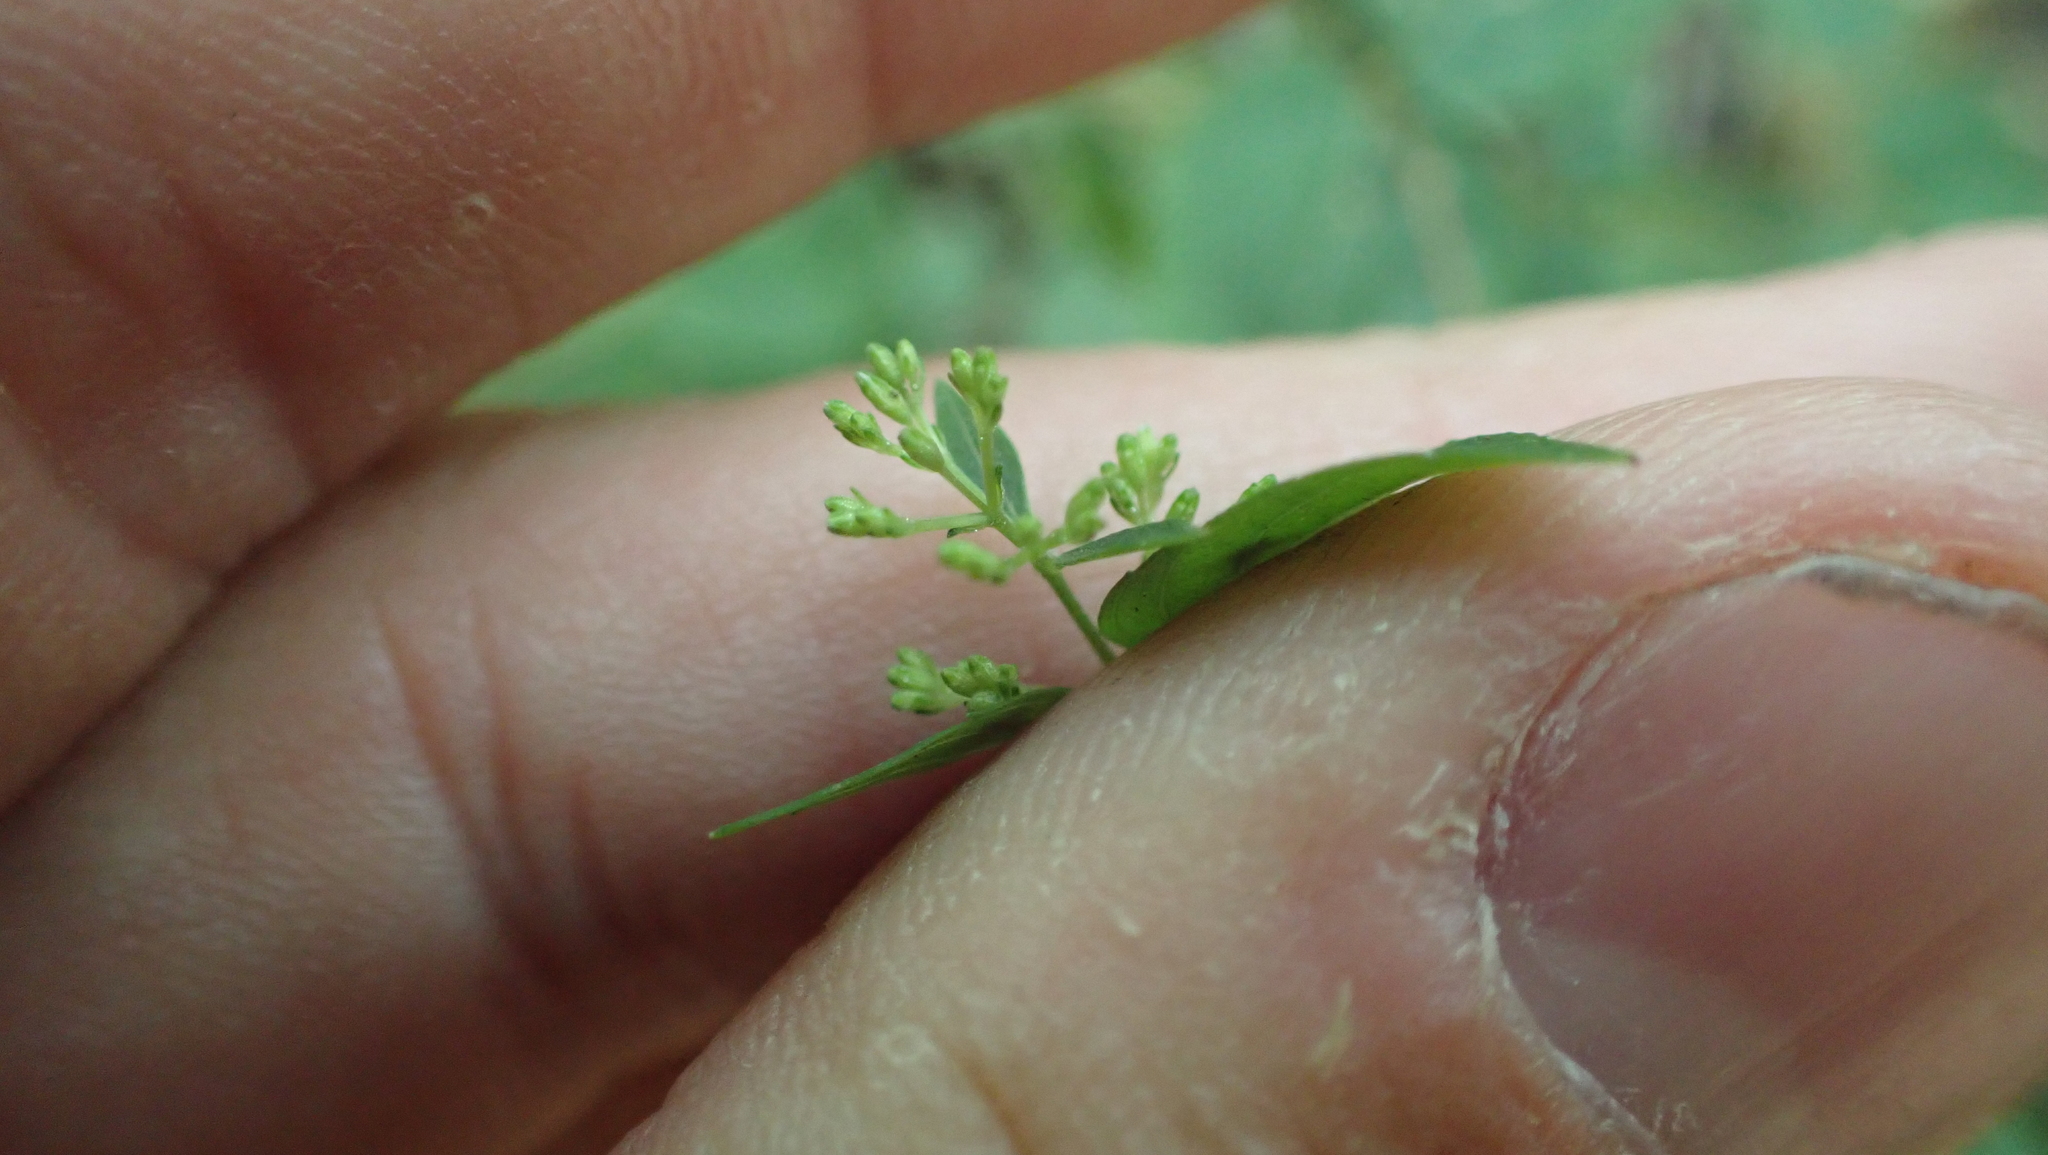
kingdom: Plantae
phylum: Tracheophyta
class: Magnoliopsida
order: Lamiales
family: Lamiaceae
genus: Cunila
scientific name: Cunila origanoides
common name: American dittany
